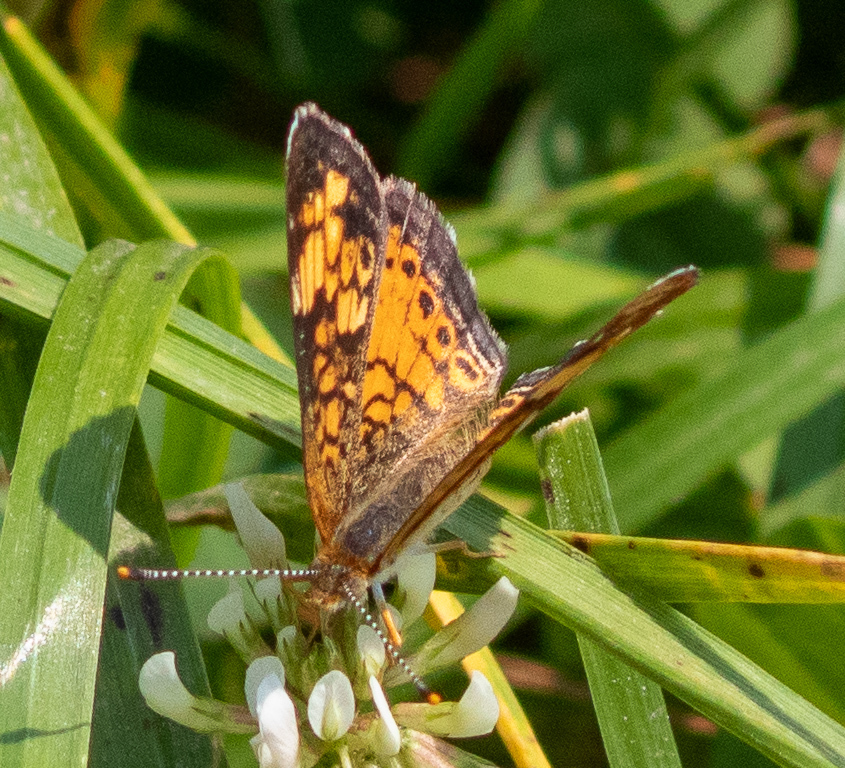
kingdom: Animalia
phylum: Arthropoda
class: Insecta
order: Lepidoptera
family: Nymphalidae
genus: Phyciodes
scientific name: Phyciodes tharos
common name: Pearl crescent
